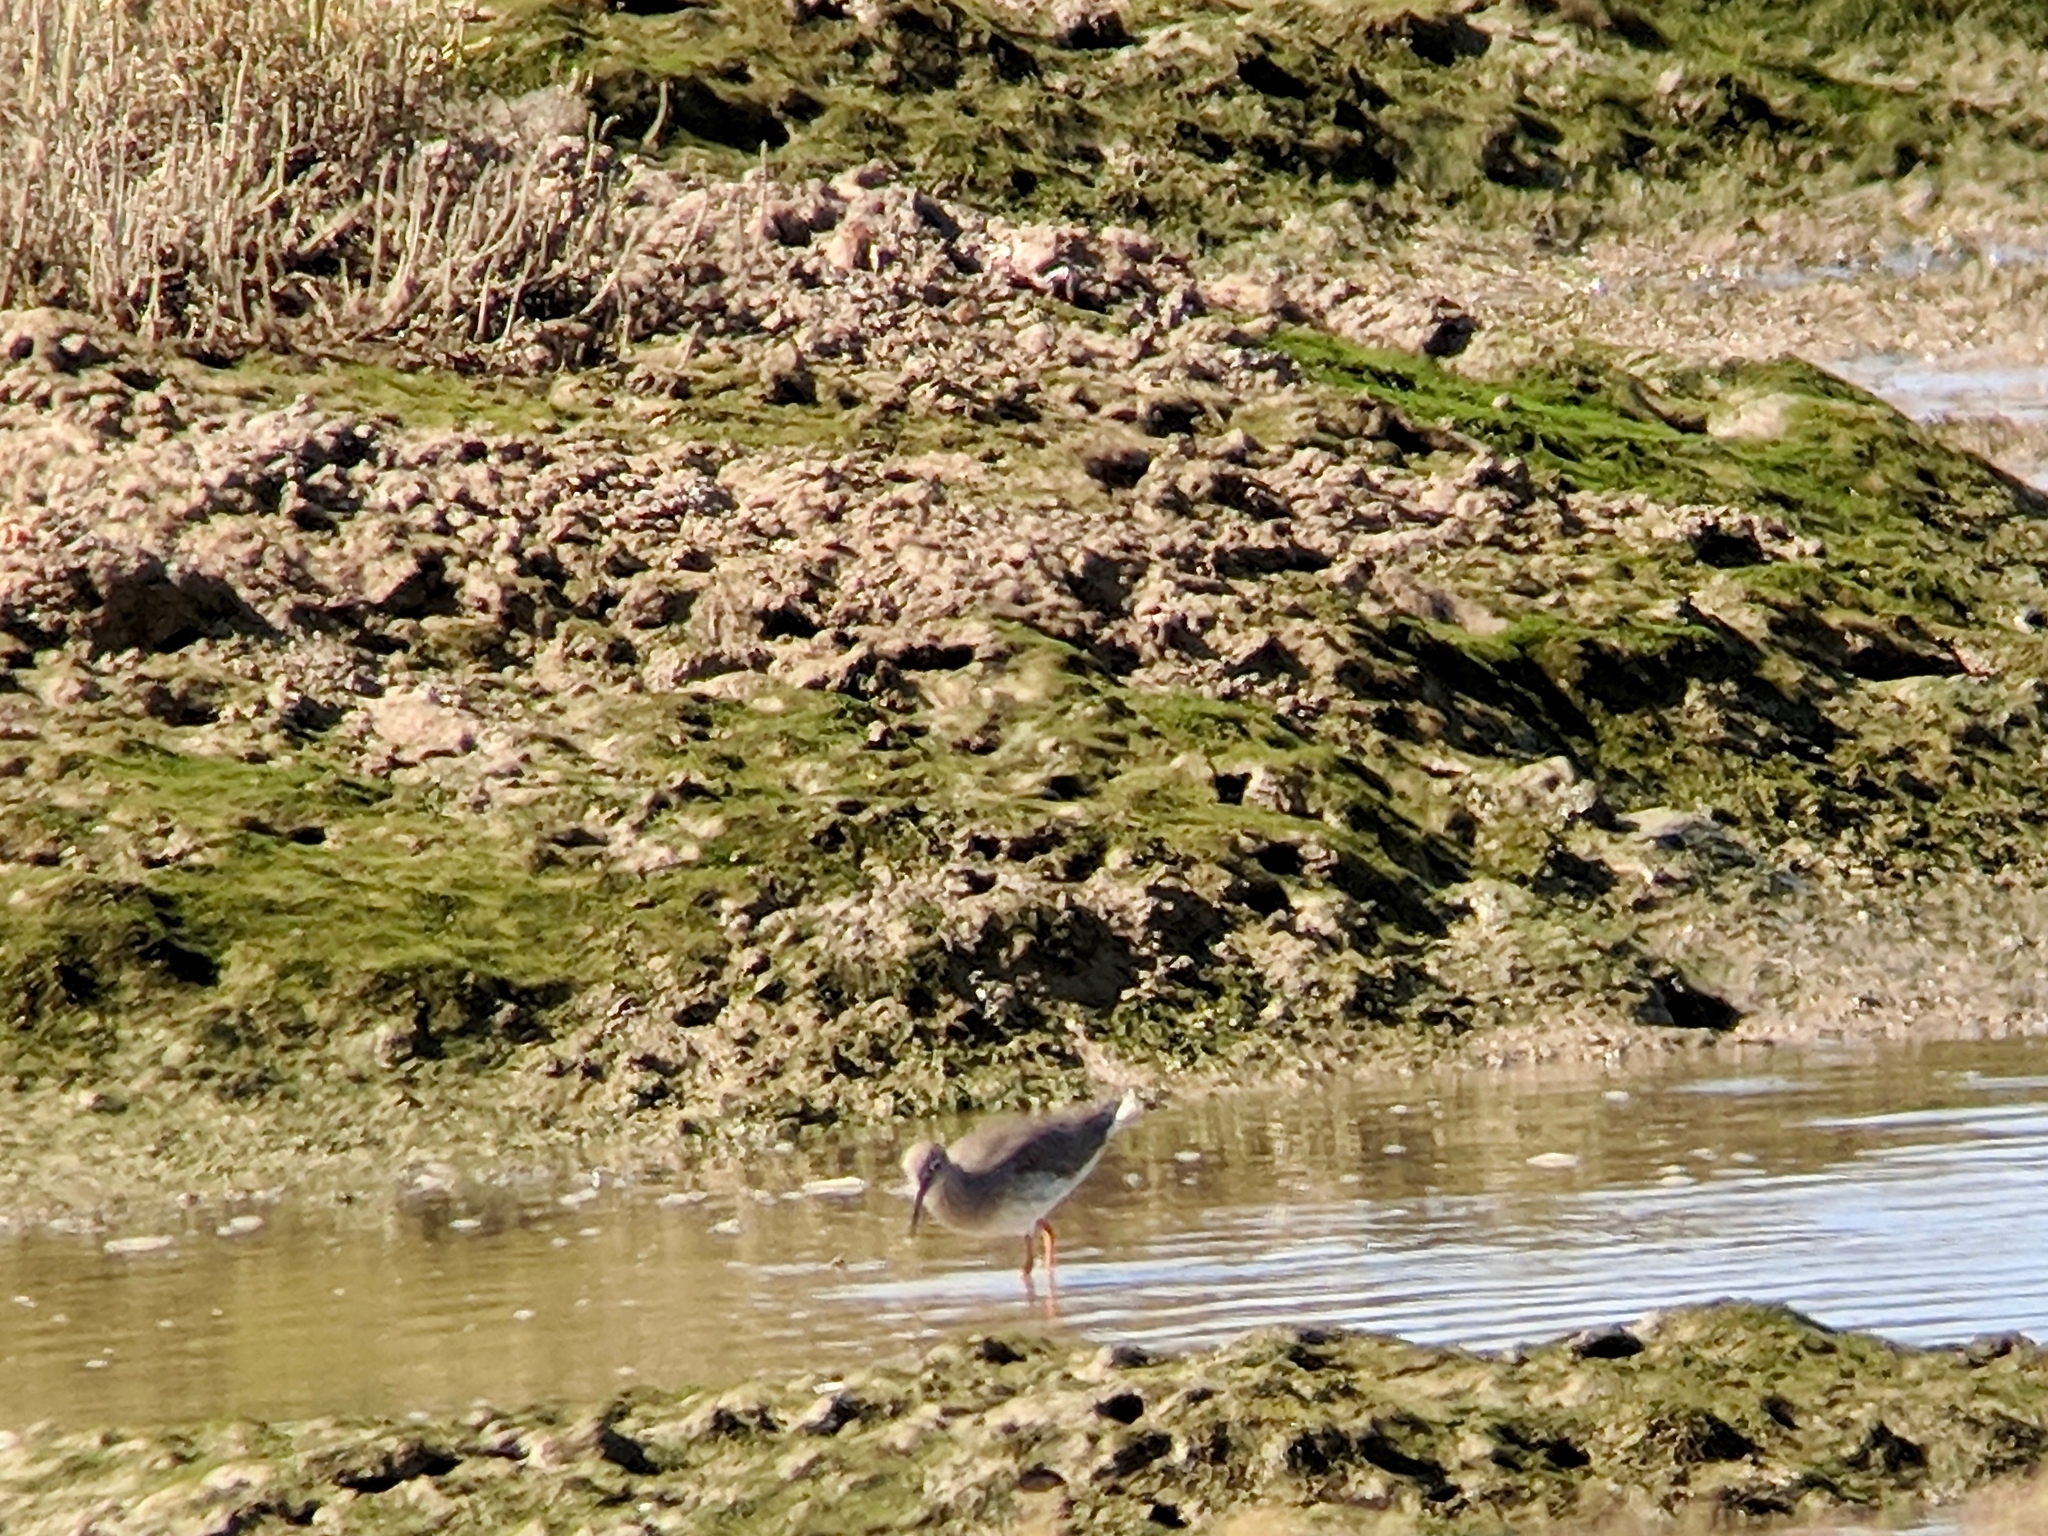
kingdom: Animalia
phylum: Chordata
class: Aves
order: Charadriiformes
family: Scolopacidae
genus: Tringa
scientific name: Tringa totanus
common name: Common redshank
